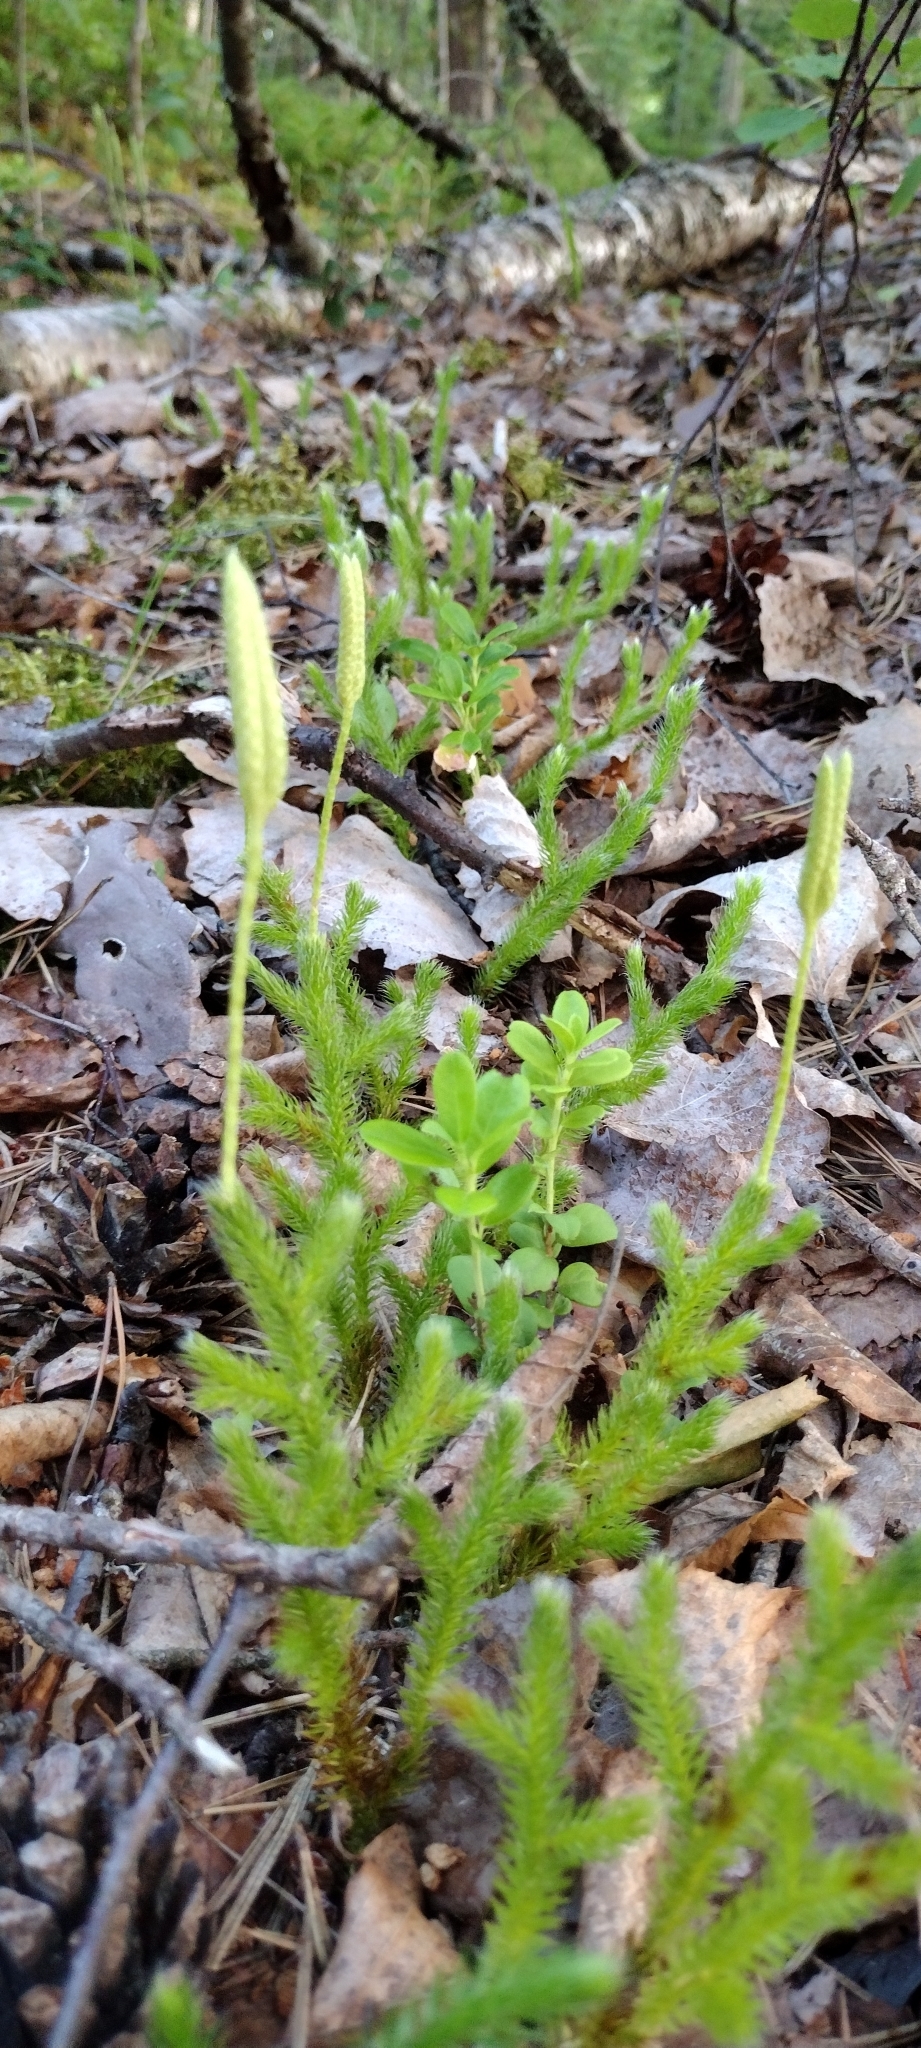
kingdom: Plantae
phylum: Tracheophyta
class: Lycopodiopsida
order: Lycopodiales
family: Lycopodiaceae
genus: Lycopodium
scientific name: Lycopodium clavatum
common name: Stag's-horn clubmoss
